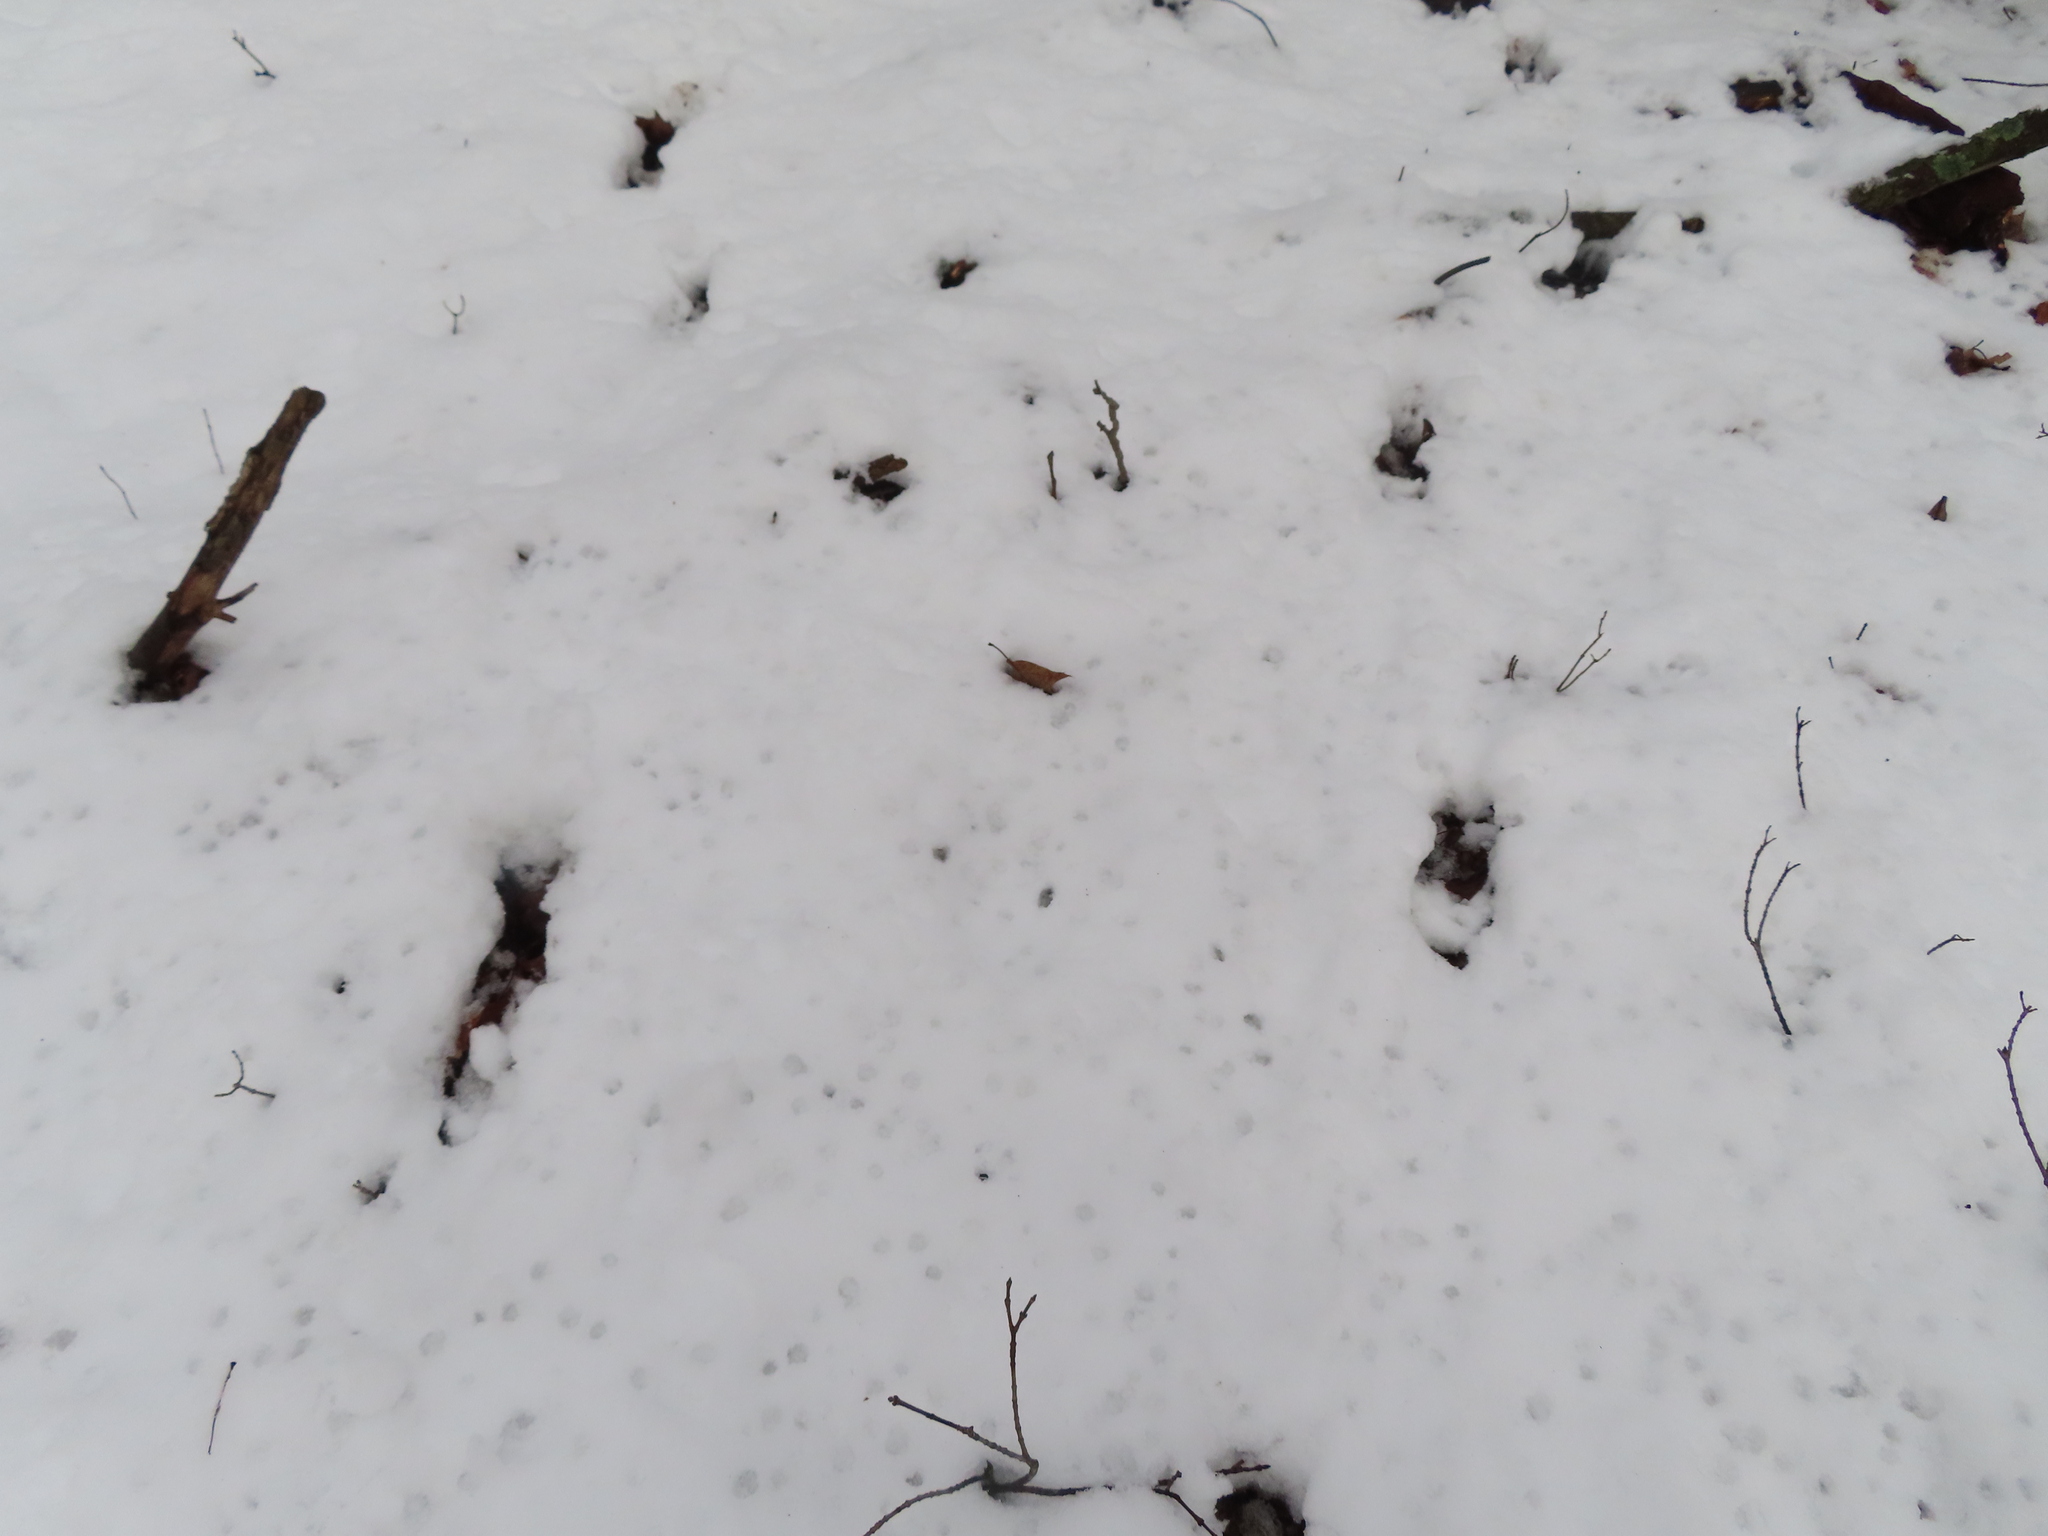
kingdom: Animalia
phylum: Chordata
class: Mammalia
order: Artiodactyla
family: Cervidae
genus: Odocoileus
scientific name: Odocoileus virginianus
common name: White-tailed deer
